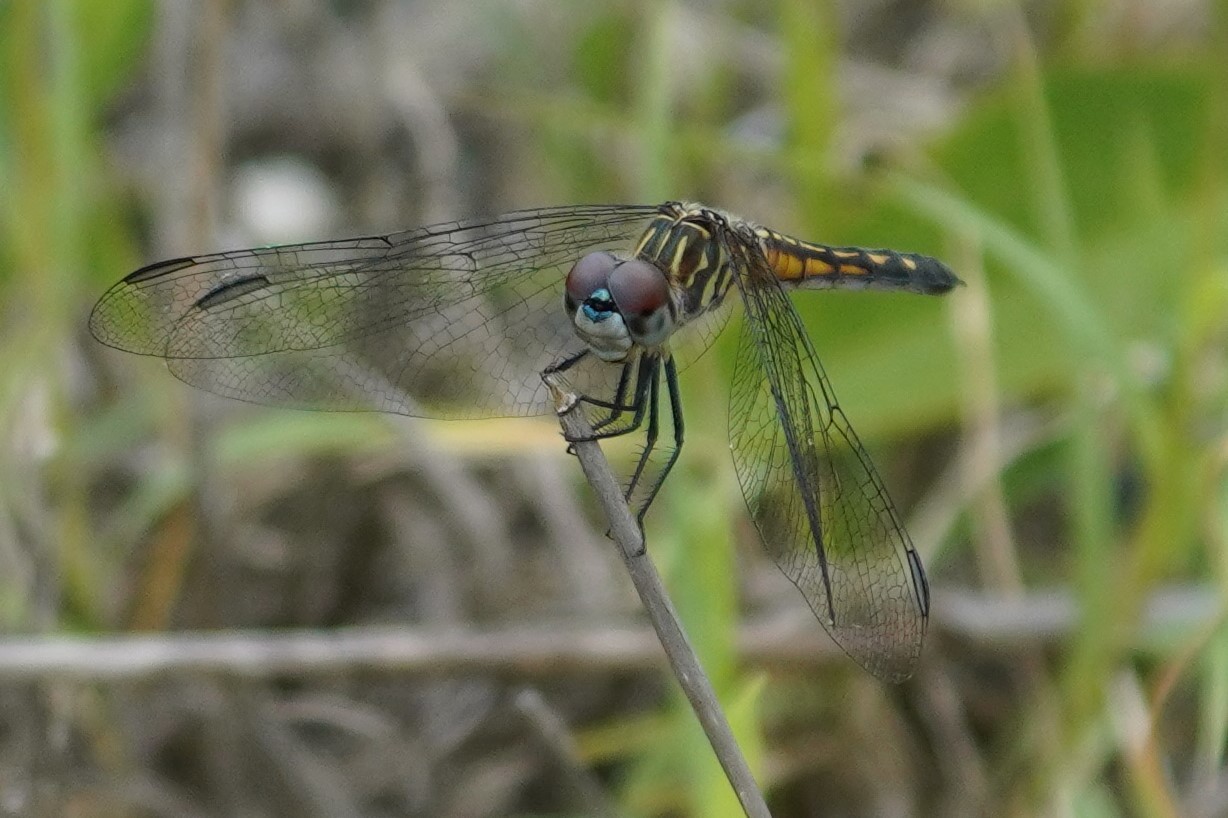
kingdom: Animalia
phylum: Arthropoda
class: Insecta
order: Odonata
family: Libellulidae
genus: Pachydiplax
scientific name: Pachydiplax longipennis
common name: Blue dasher
